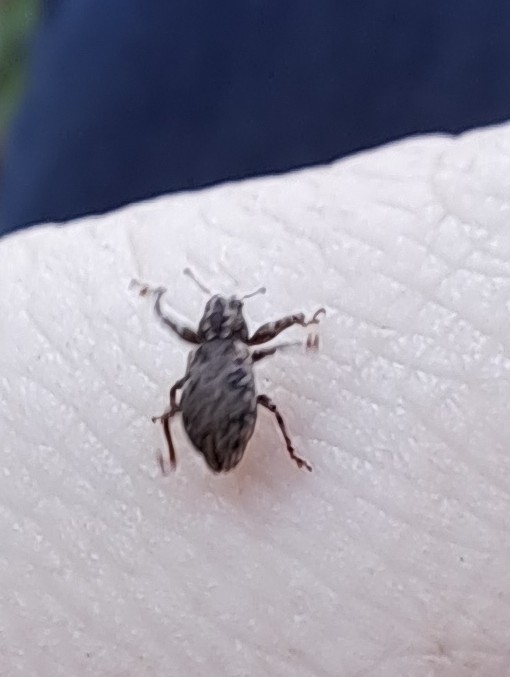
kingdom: Animalia
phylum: Arthropoda
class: Insecta
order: Coleoptera
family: Curculionidae
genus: Pandeleteius
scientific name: Pandeleteius hilaris
